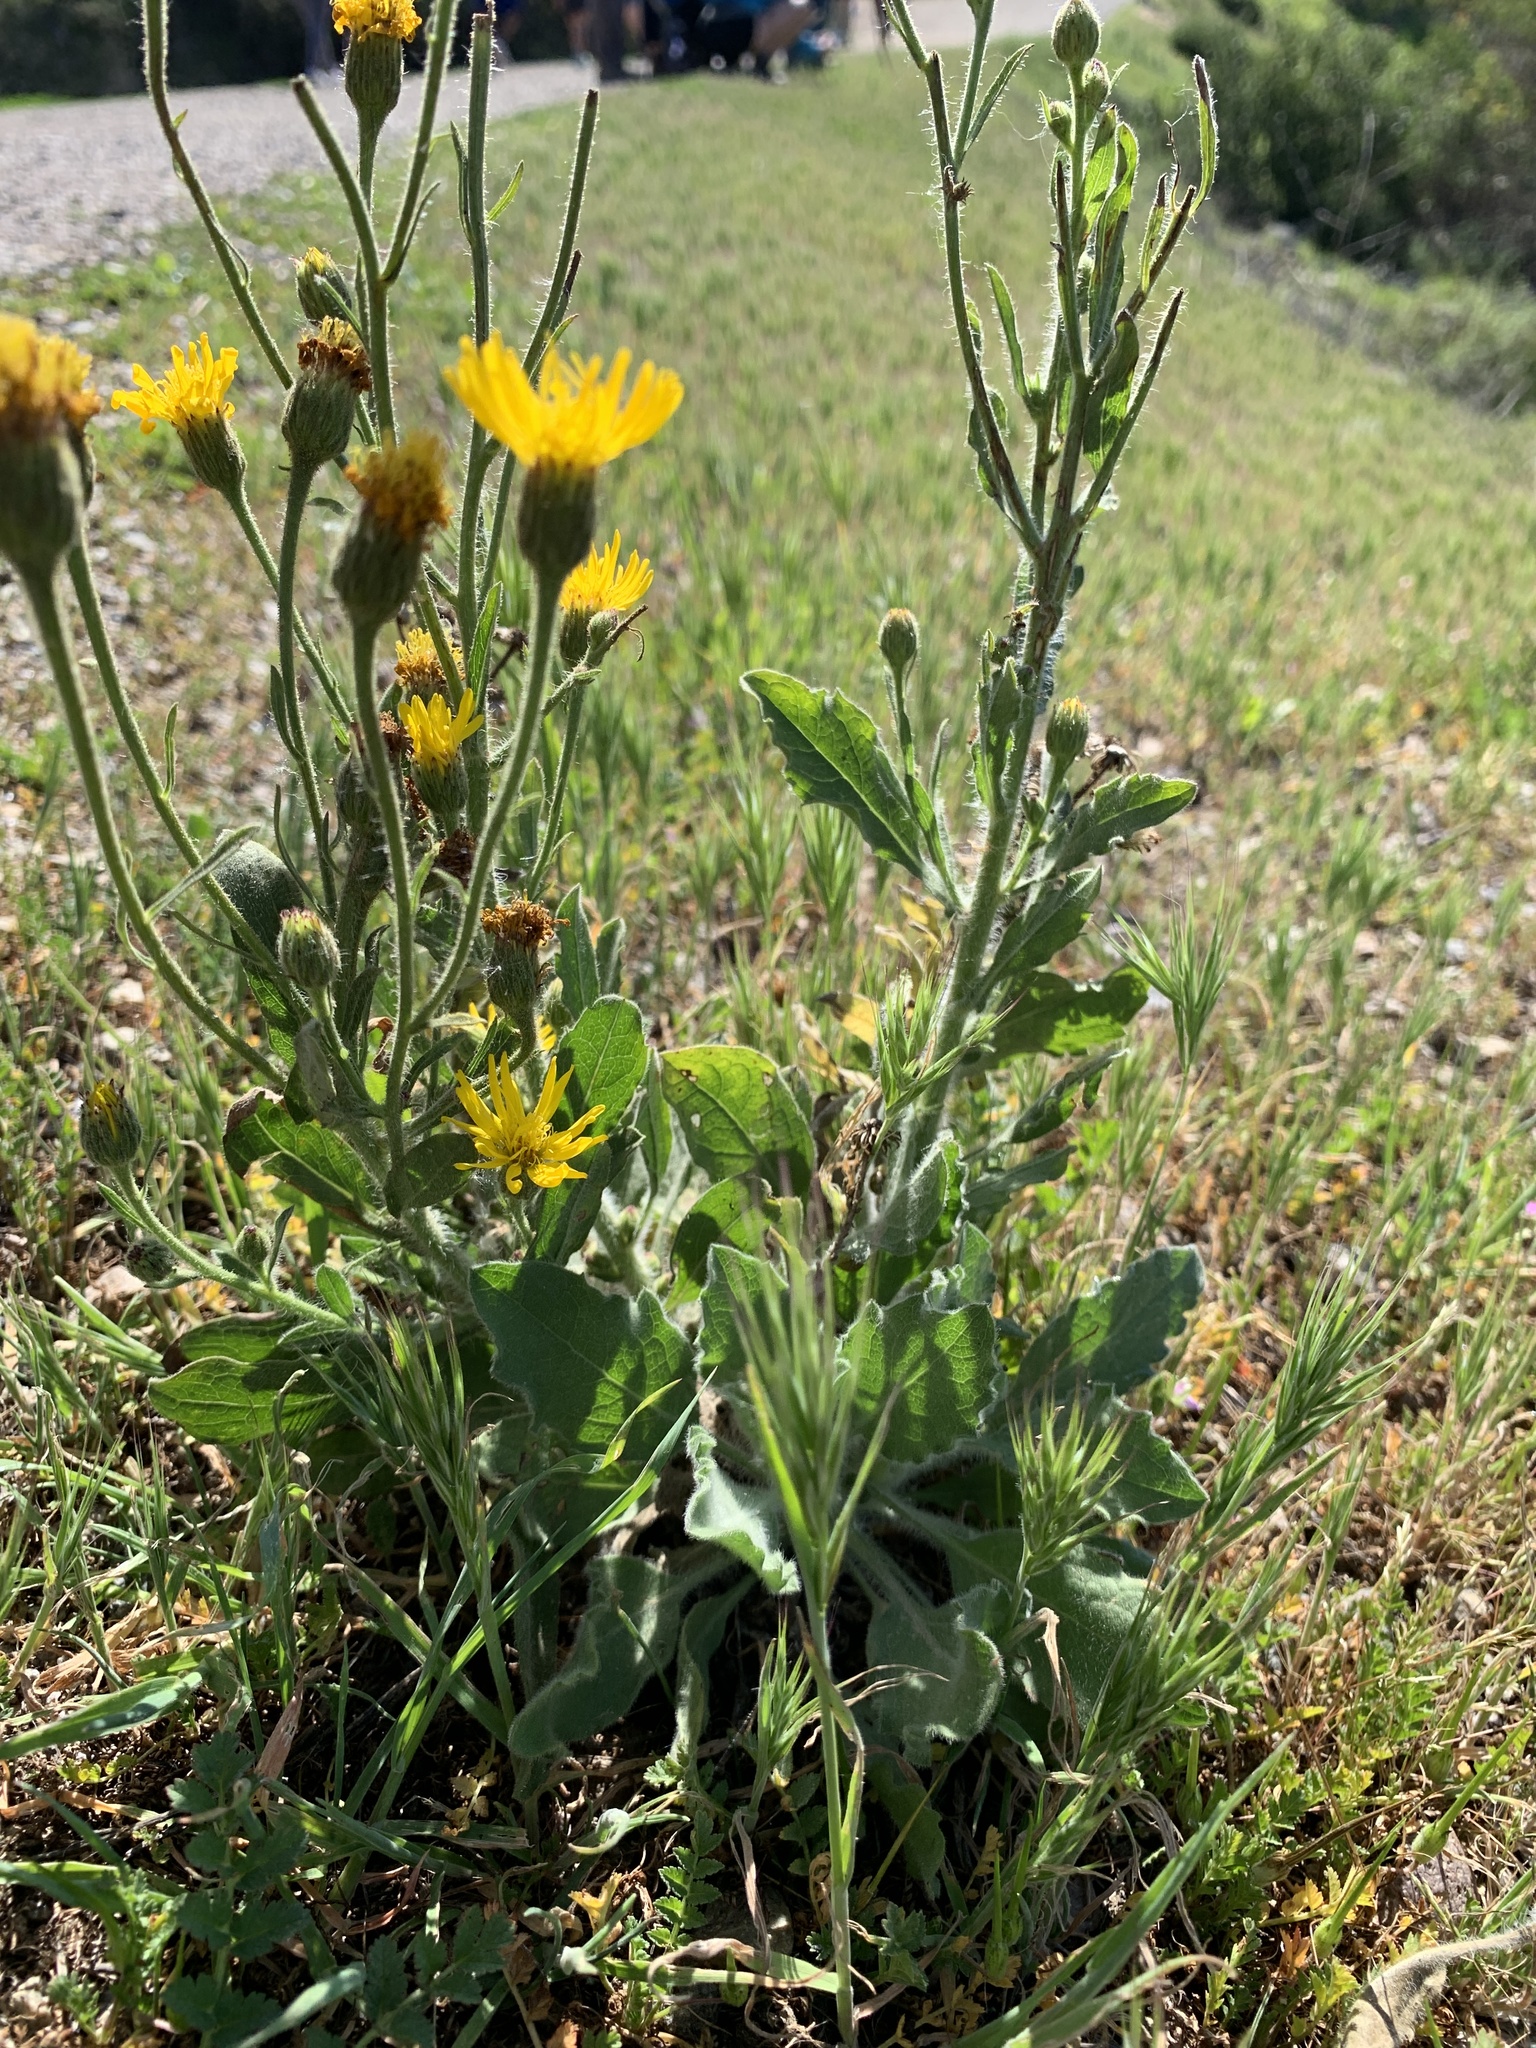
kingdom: Plantae
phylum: Tracheophyta
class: Magnoliopsida
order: Asterales
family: Asteraceae
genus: Heterotheca
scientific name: Heterotheca grandiflora
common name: Telegraphweed
